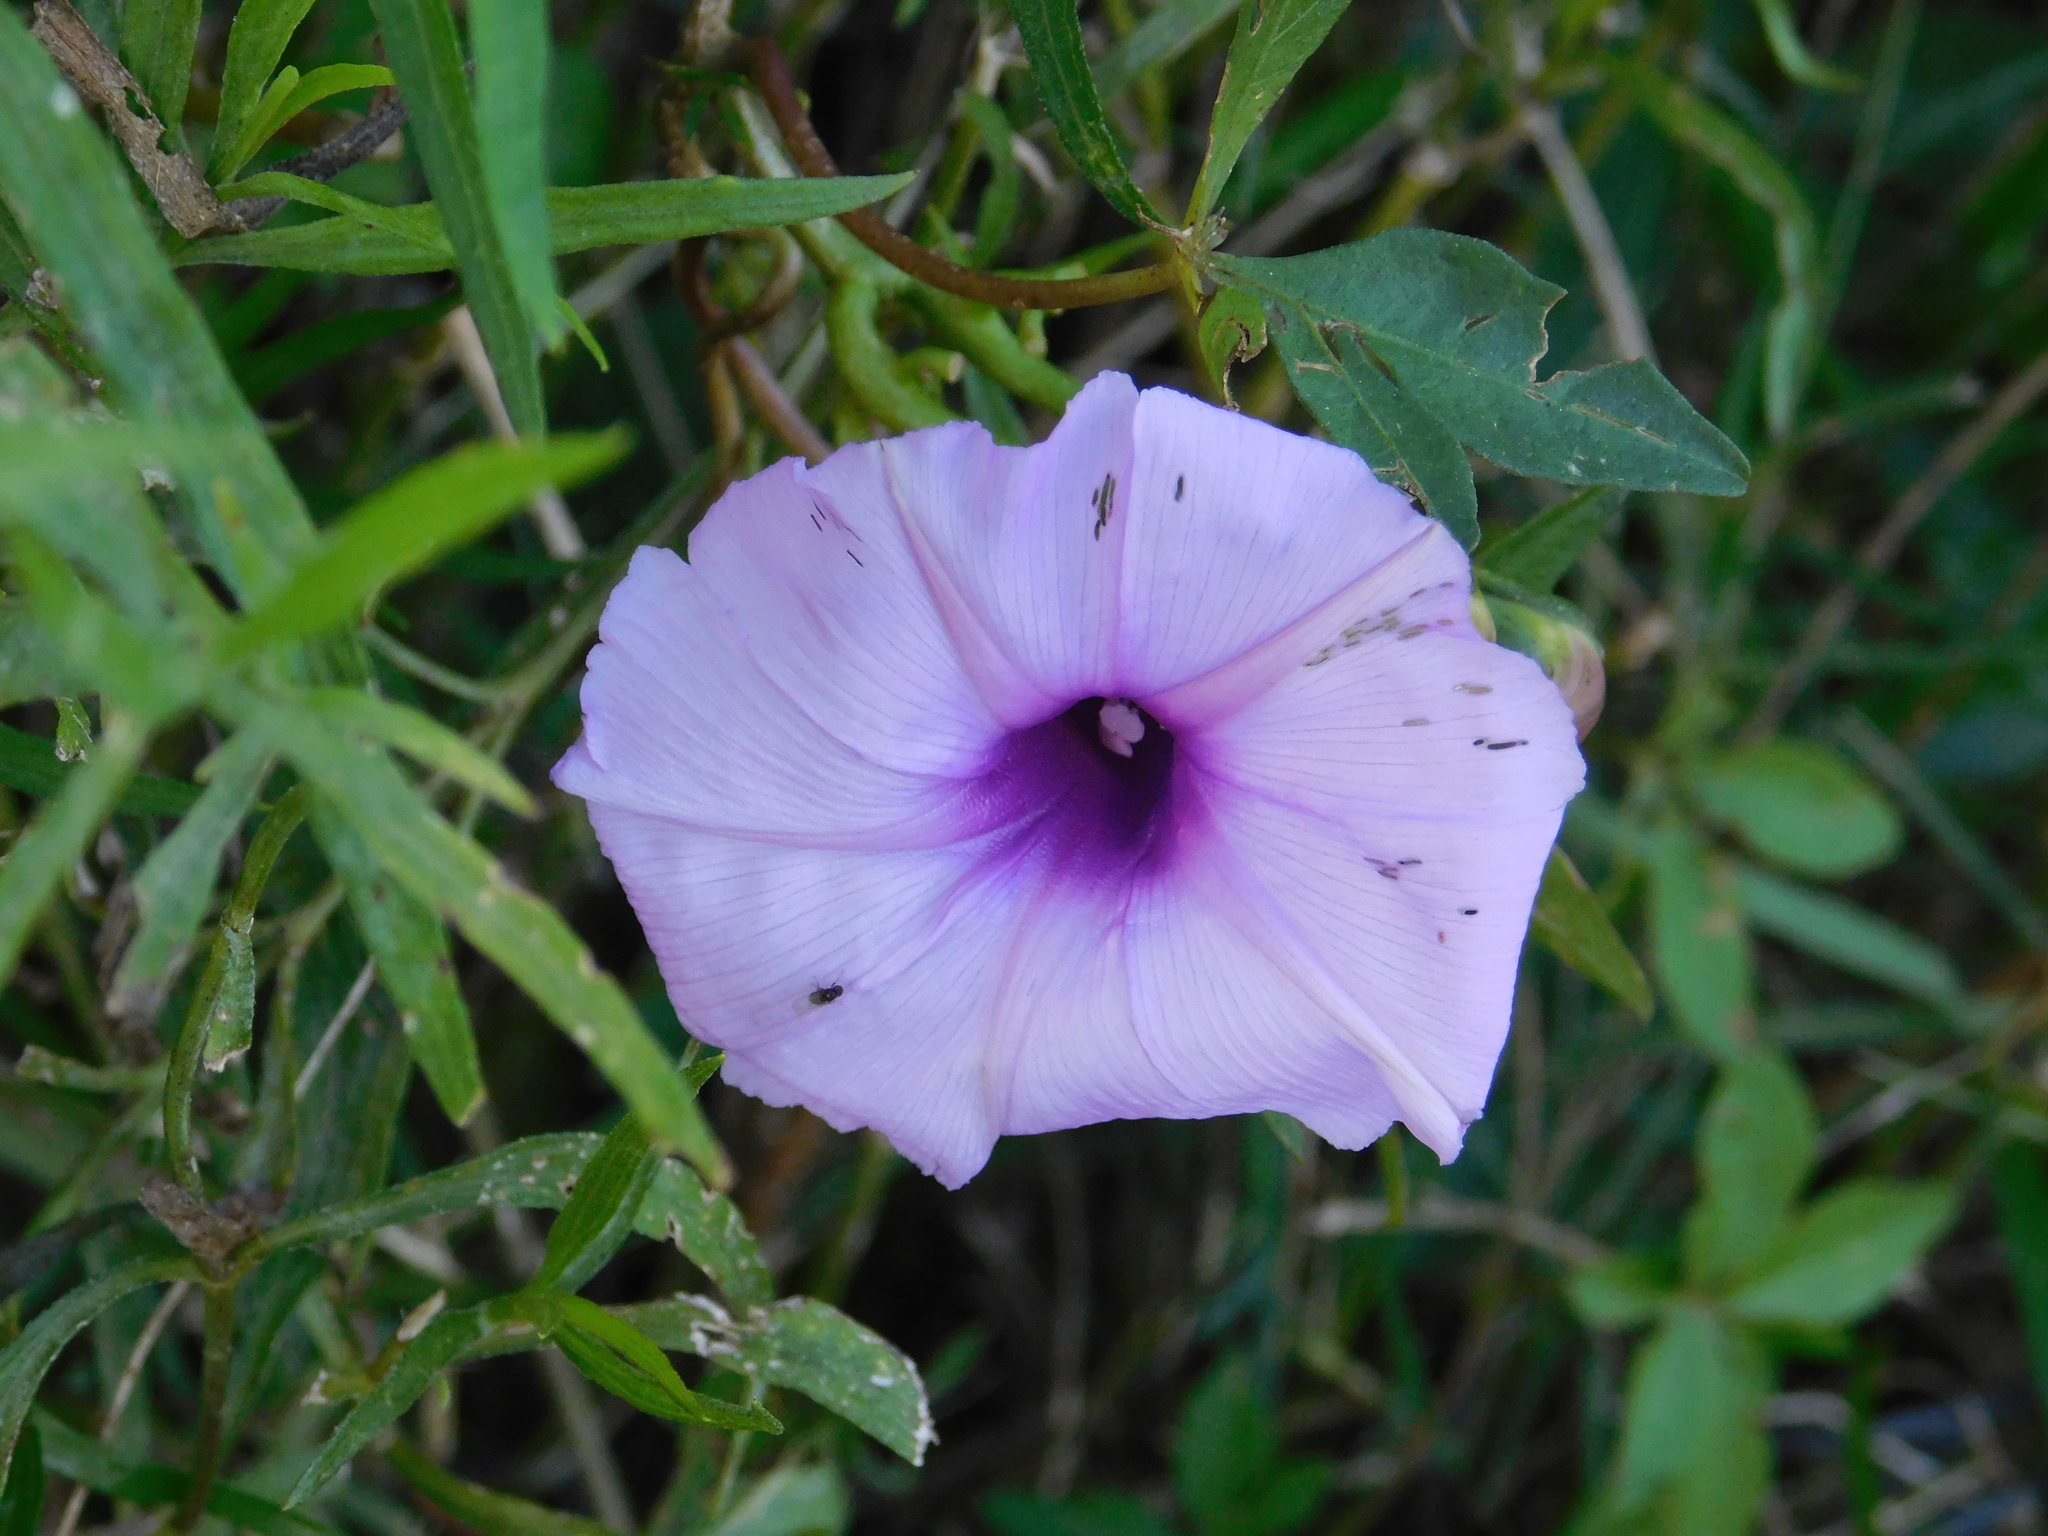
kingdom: Plantae
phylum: Tracheophyta
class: Magnoliopsida
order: Solanales
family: Convolvulaceae
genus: Ipomoea
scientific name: Ipomoea cairica
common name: Mile a minute vine
